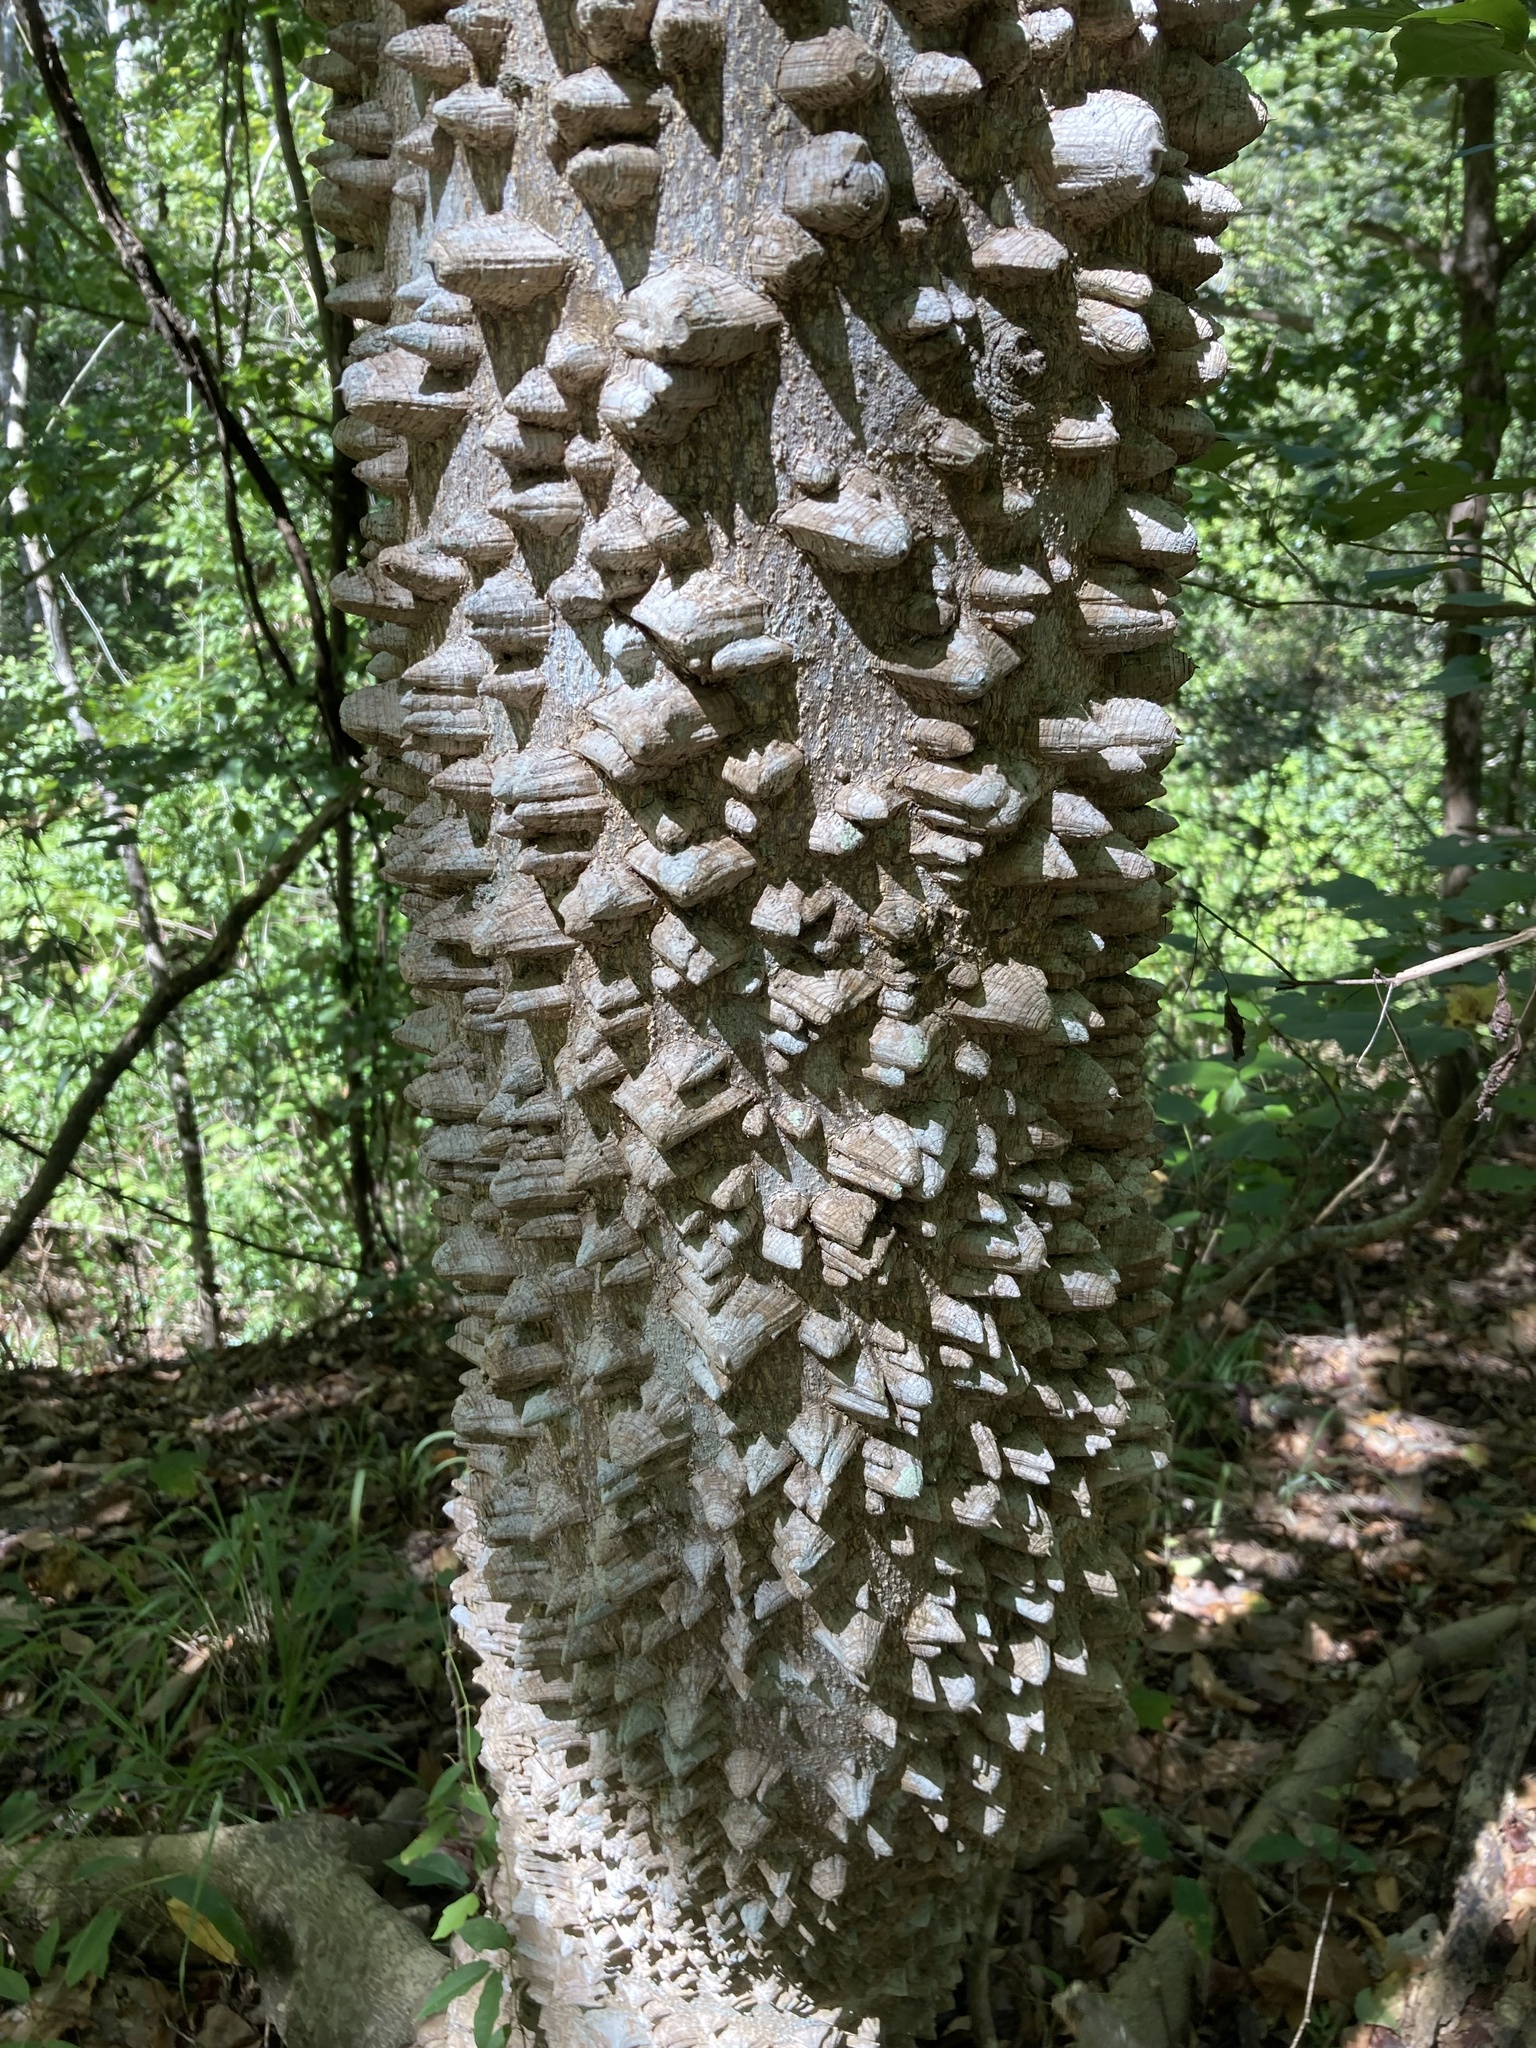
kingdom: Plantae
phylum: Tracheophyta
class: Magnoliopsida
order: Sapindales
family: Rutaceae
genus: Zanthoxylum
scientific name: Zanthoxylum clava-herculis
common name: Hercules'-club
